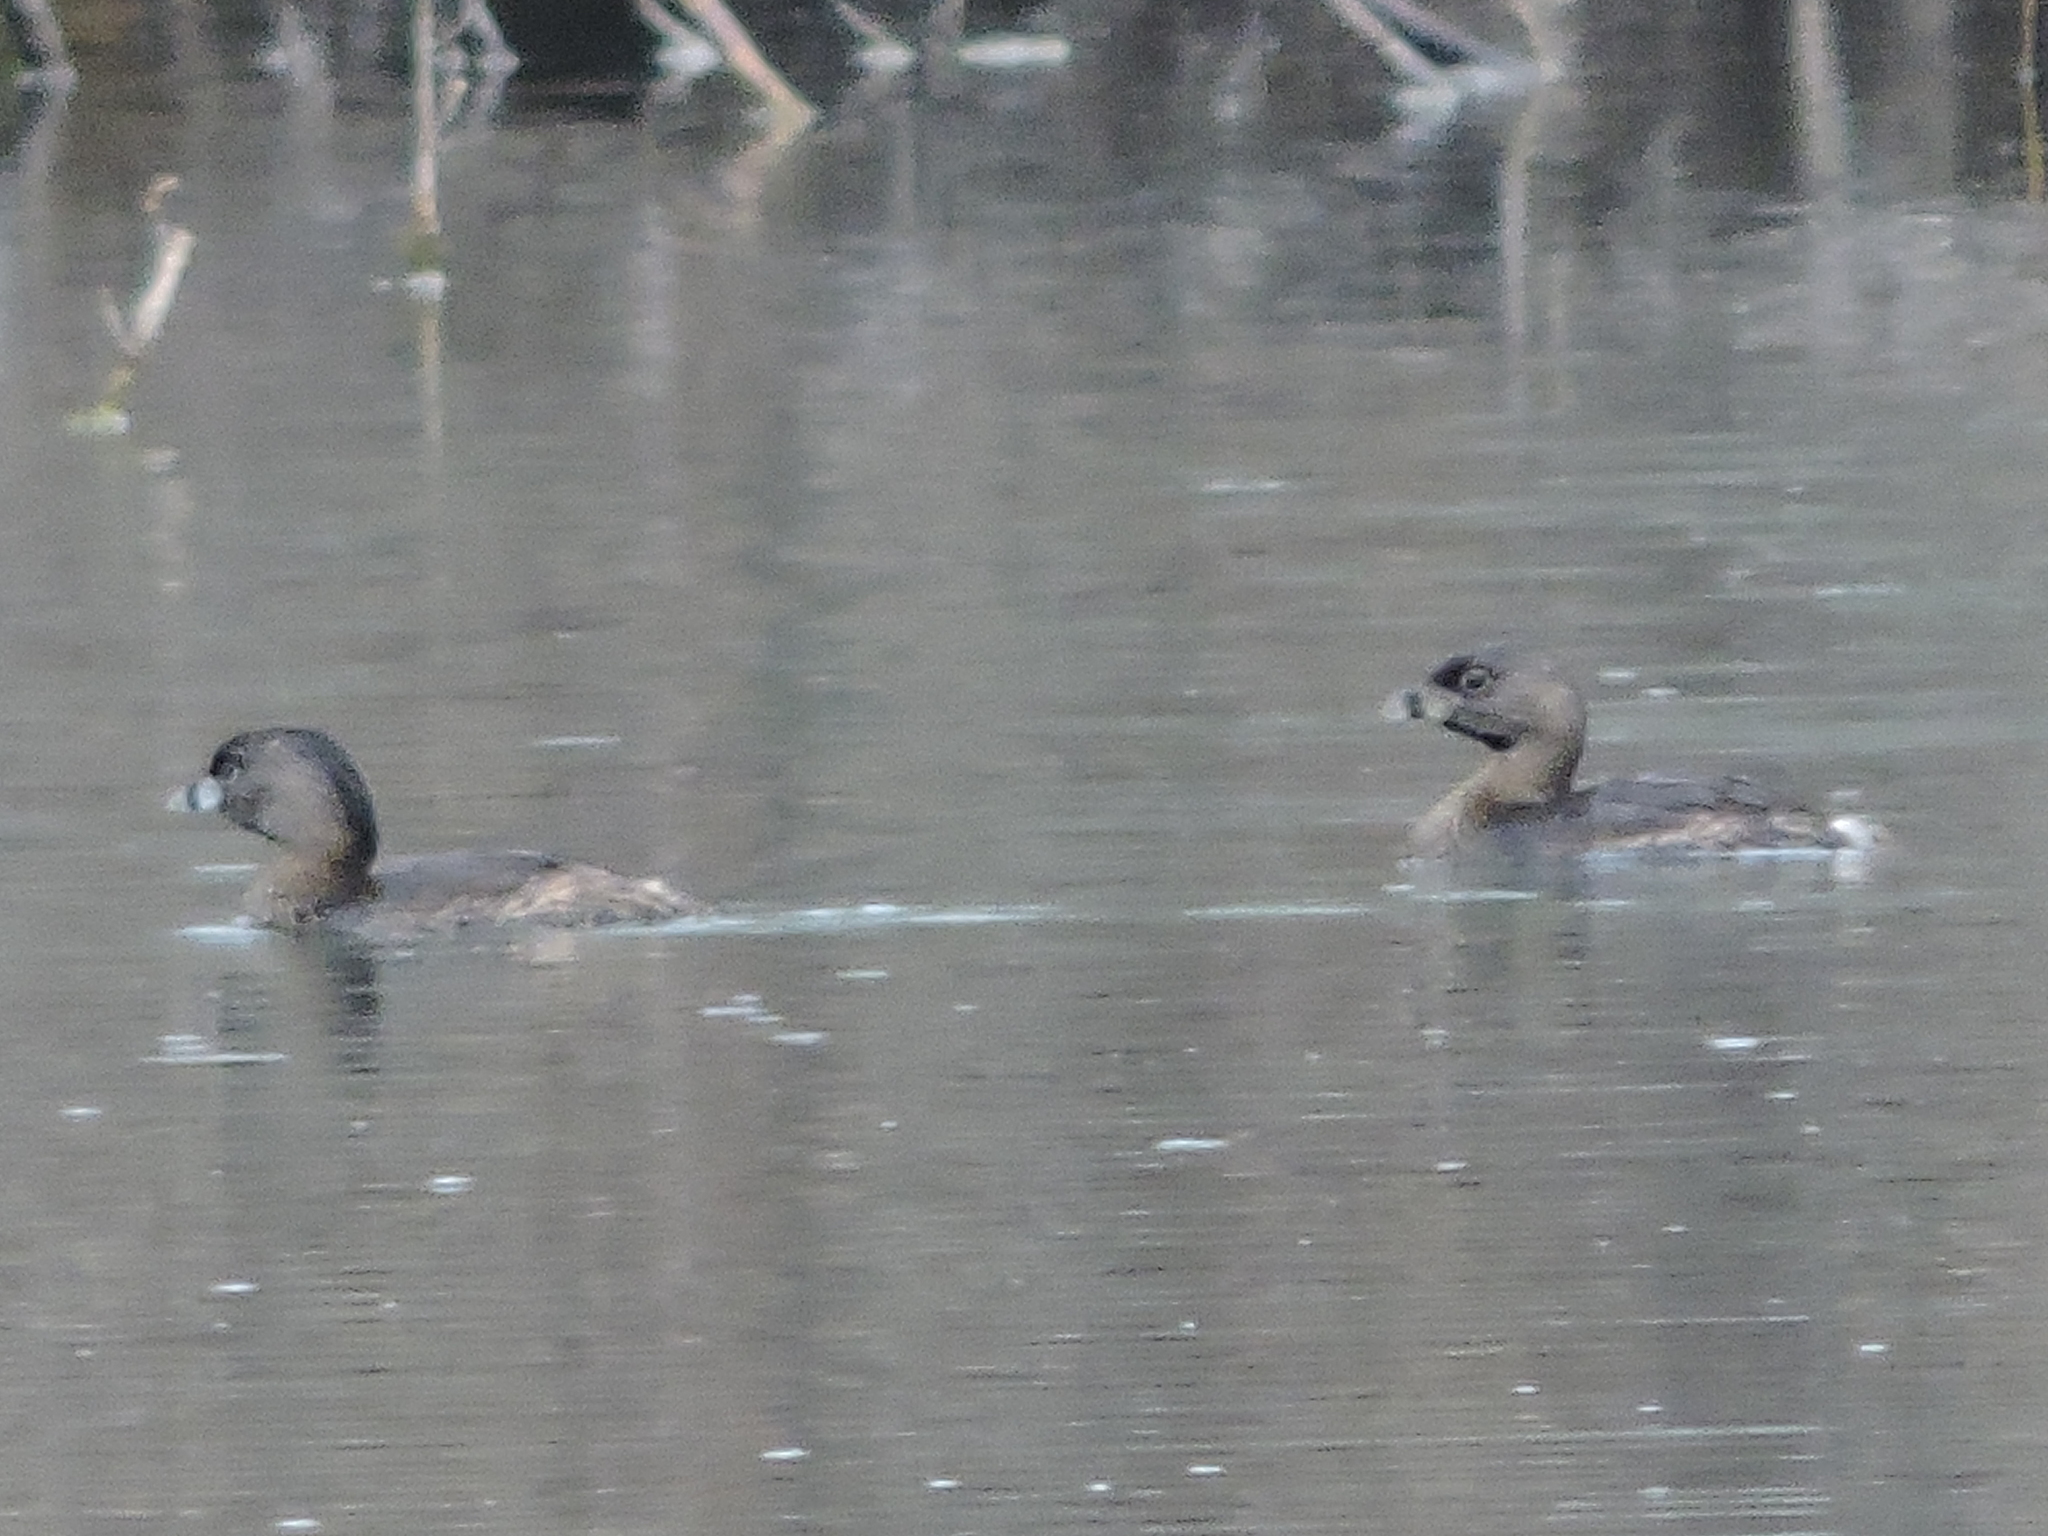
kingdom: Animalia
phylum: Chordata
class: Aves
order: Podicipediformes
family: Podicipedidae
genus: Podilymbus
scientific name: Podilymbus podiceps
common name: Pied-billed grebe
